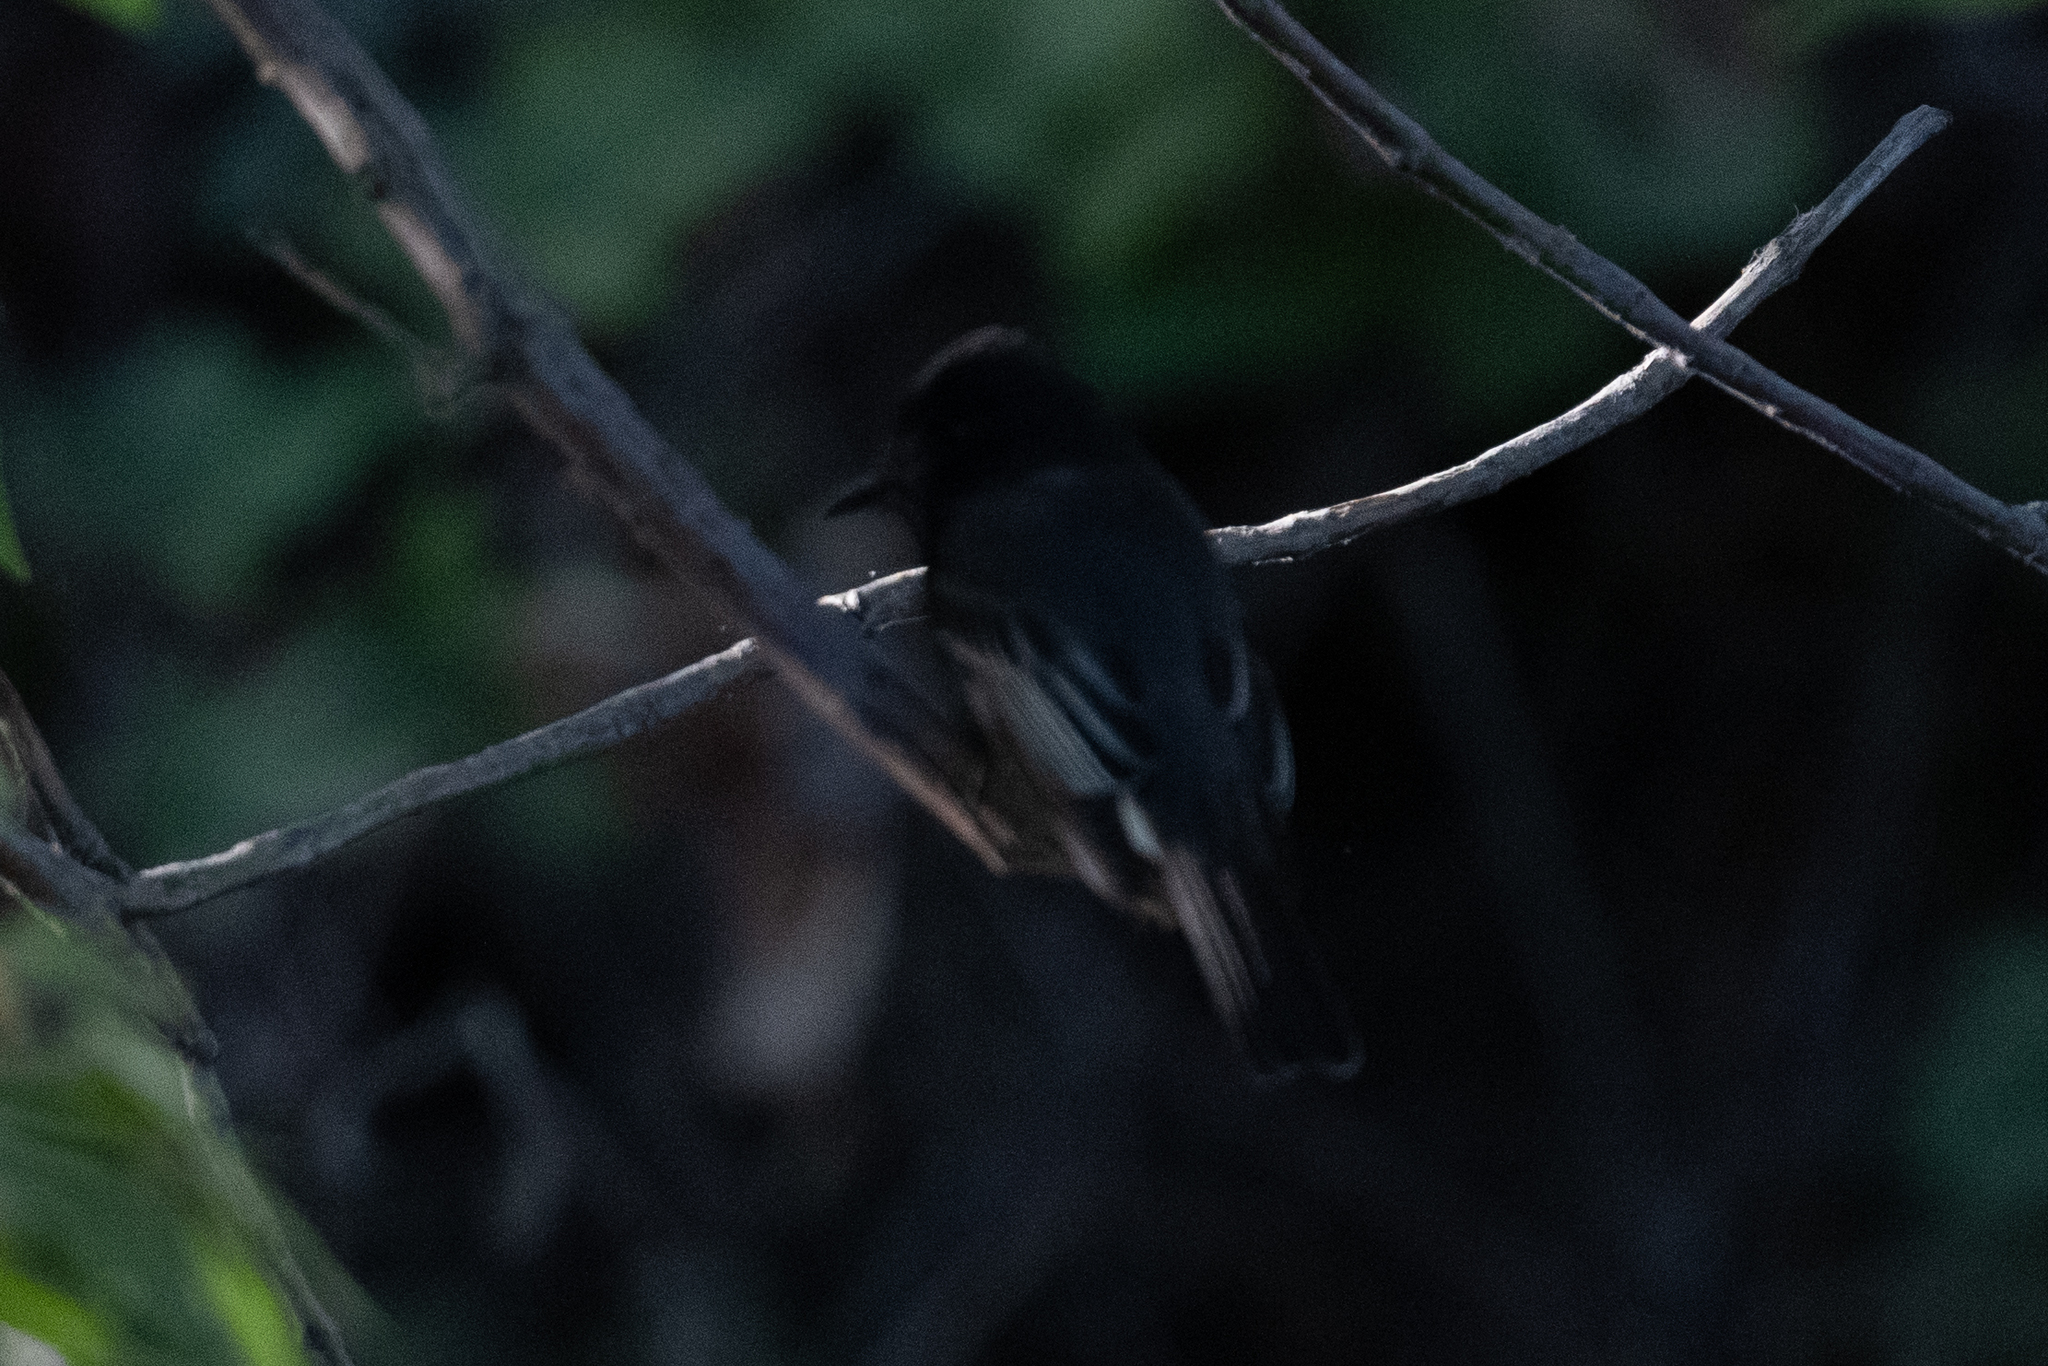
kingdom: Animalia
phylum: Chordata
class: Aves
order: Passeriformes
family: Tyrannidae
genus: Sayornis
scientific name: Sayornis nigricans
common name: Black phoebe
